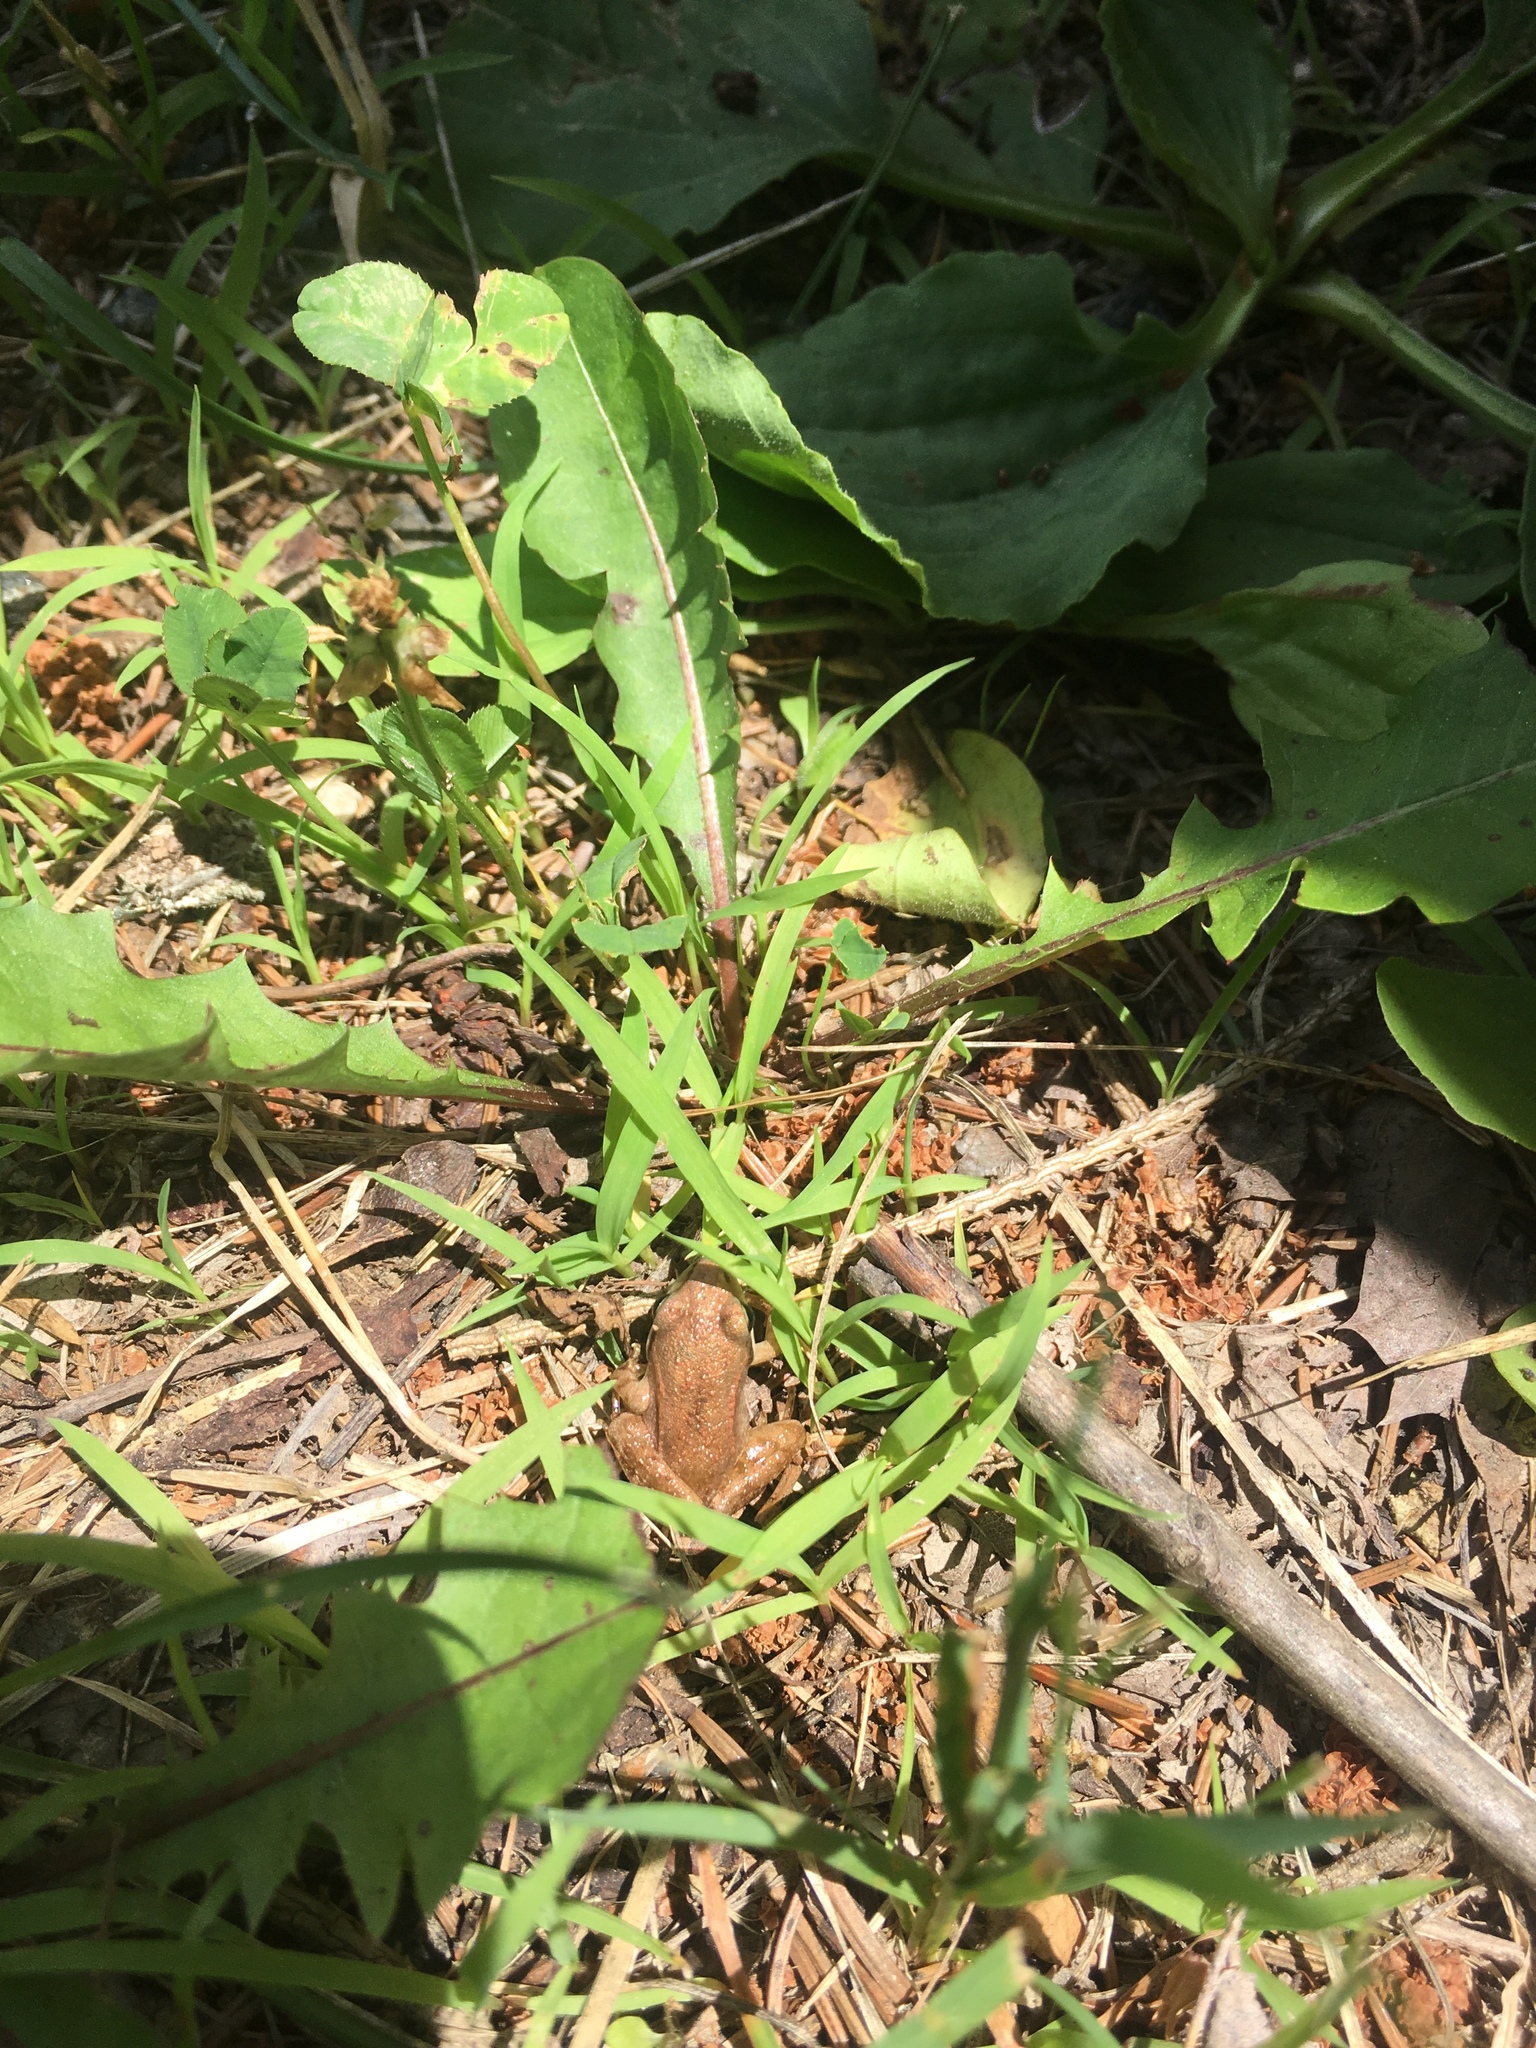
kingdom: Animalia
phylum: Chordata
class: Amphibia
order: Anura
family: Ranidae
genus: Lithobates
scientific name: Lithobates sylvaticus
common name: Wood frog
